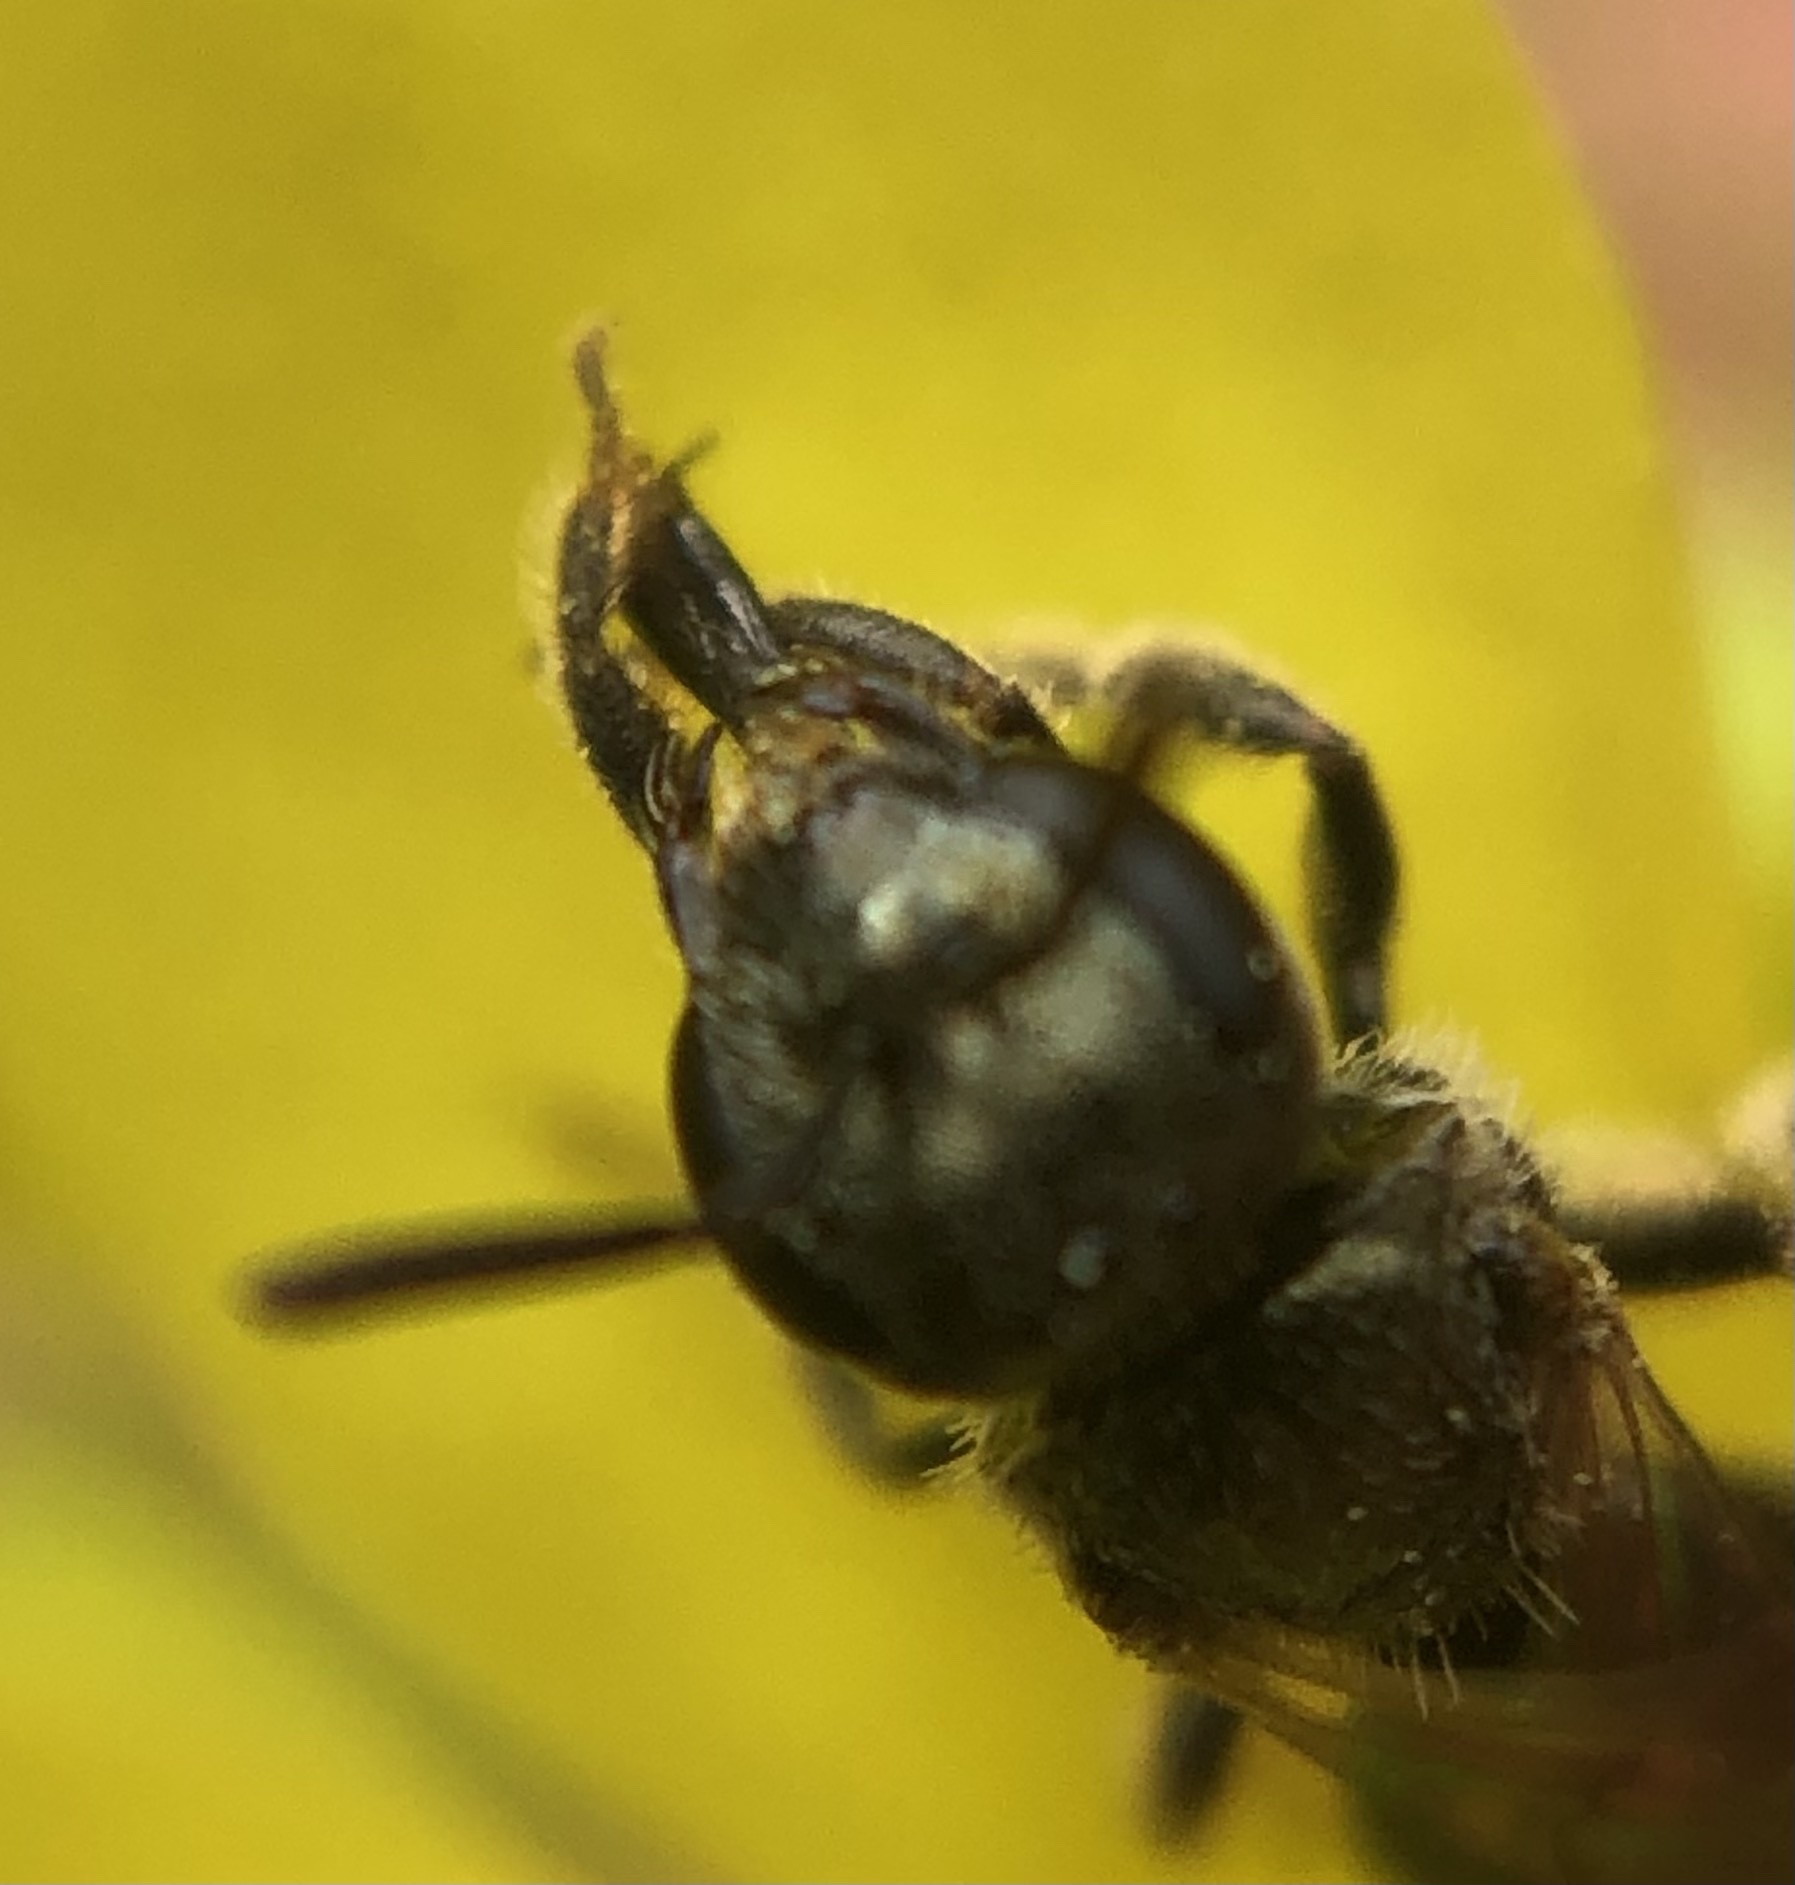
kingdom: Animalia
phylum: Arthropoda
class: Insecta
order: Hymenoptera
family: Halictidae
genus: Lasioglossum
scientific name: Lasioglossum imitatum
